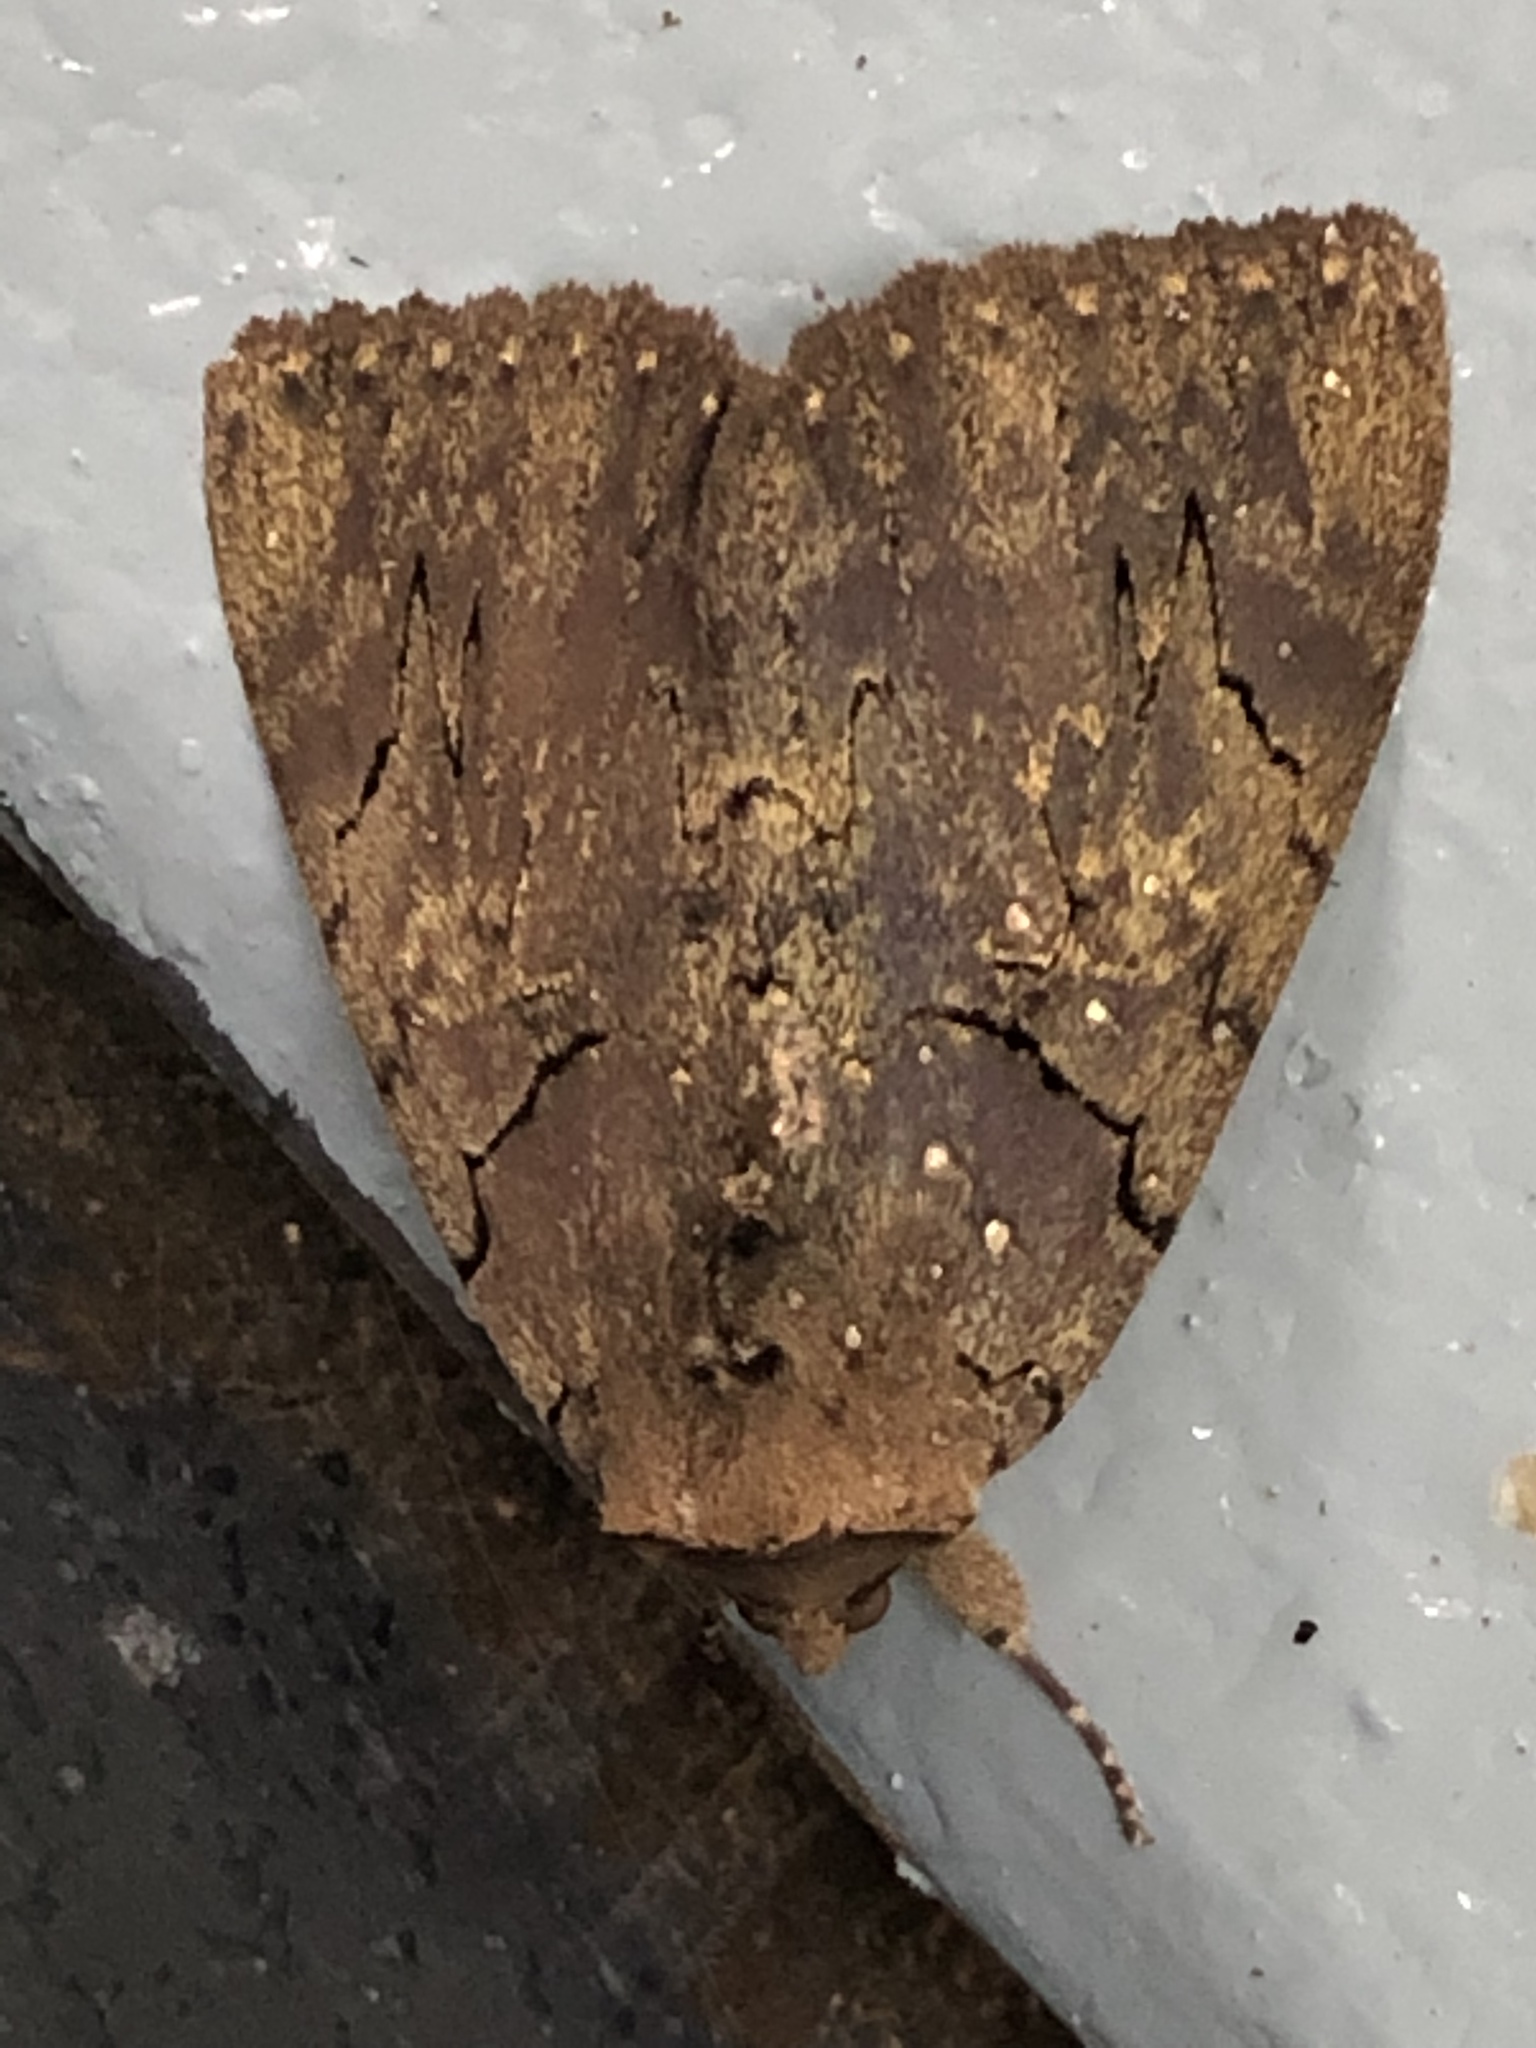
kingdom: Animalia
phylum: Arthropoda
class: Insecta
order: Lepidoptera
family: Erebidae
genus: Catocala
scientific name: Catocala cara
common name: Darling underwing
